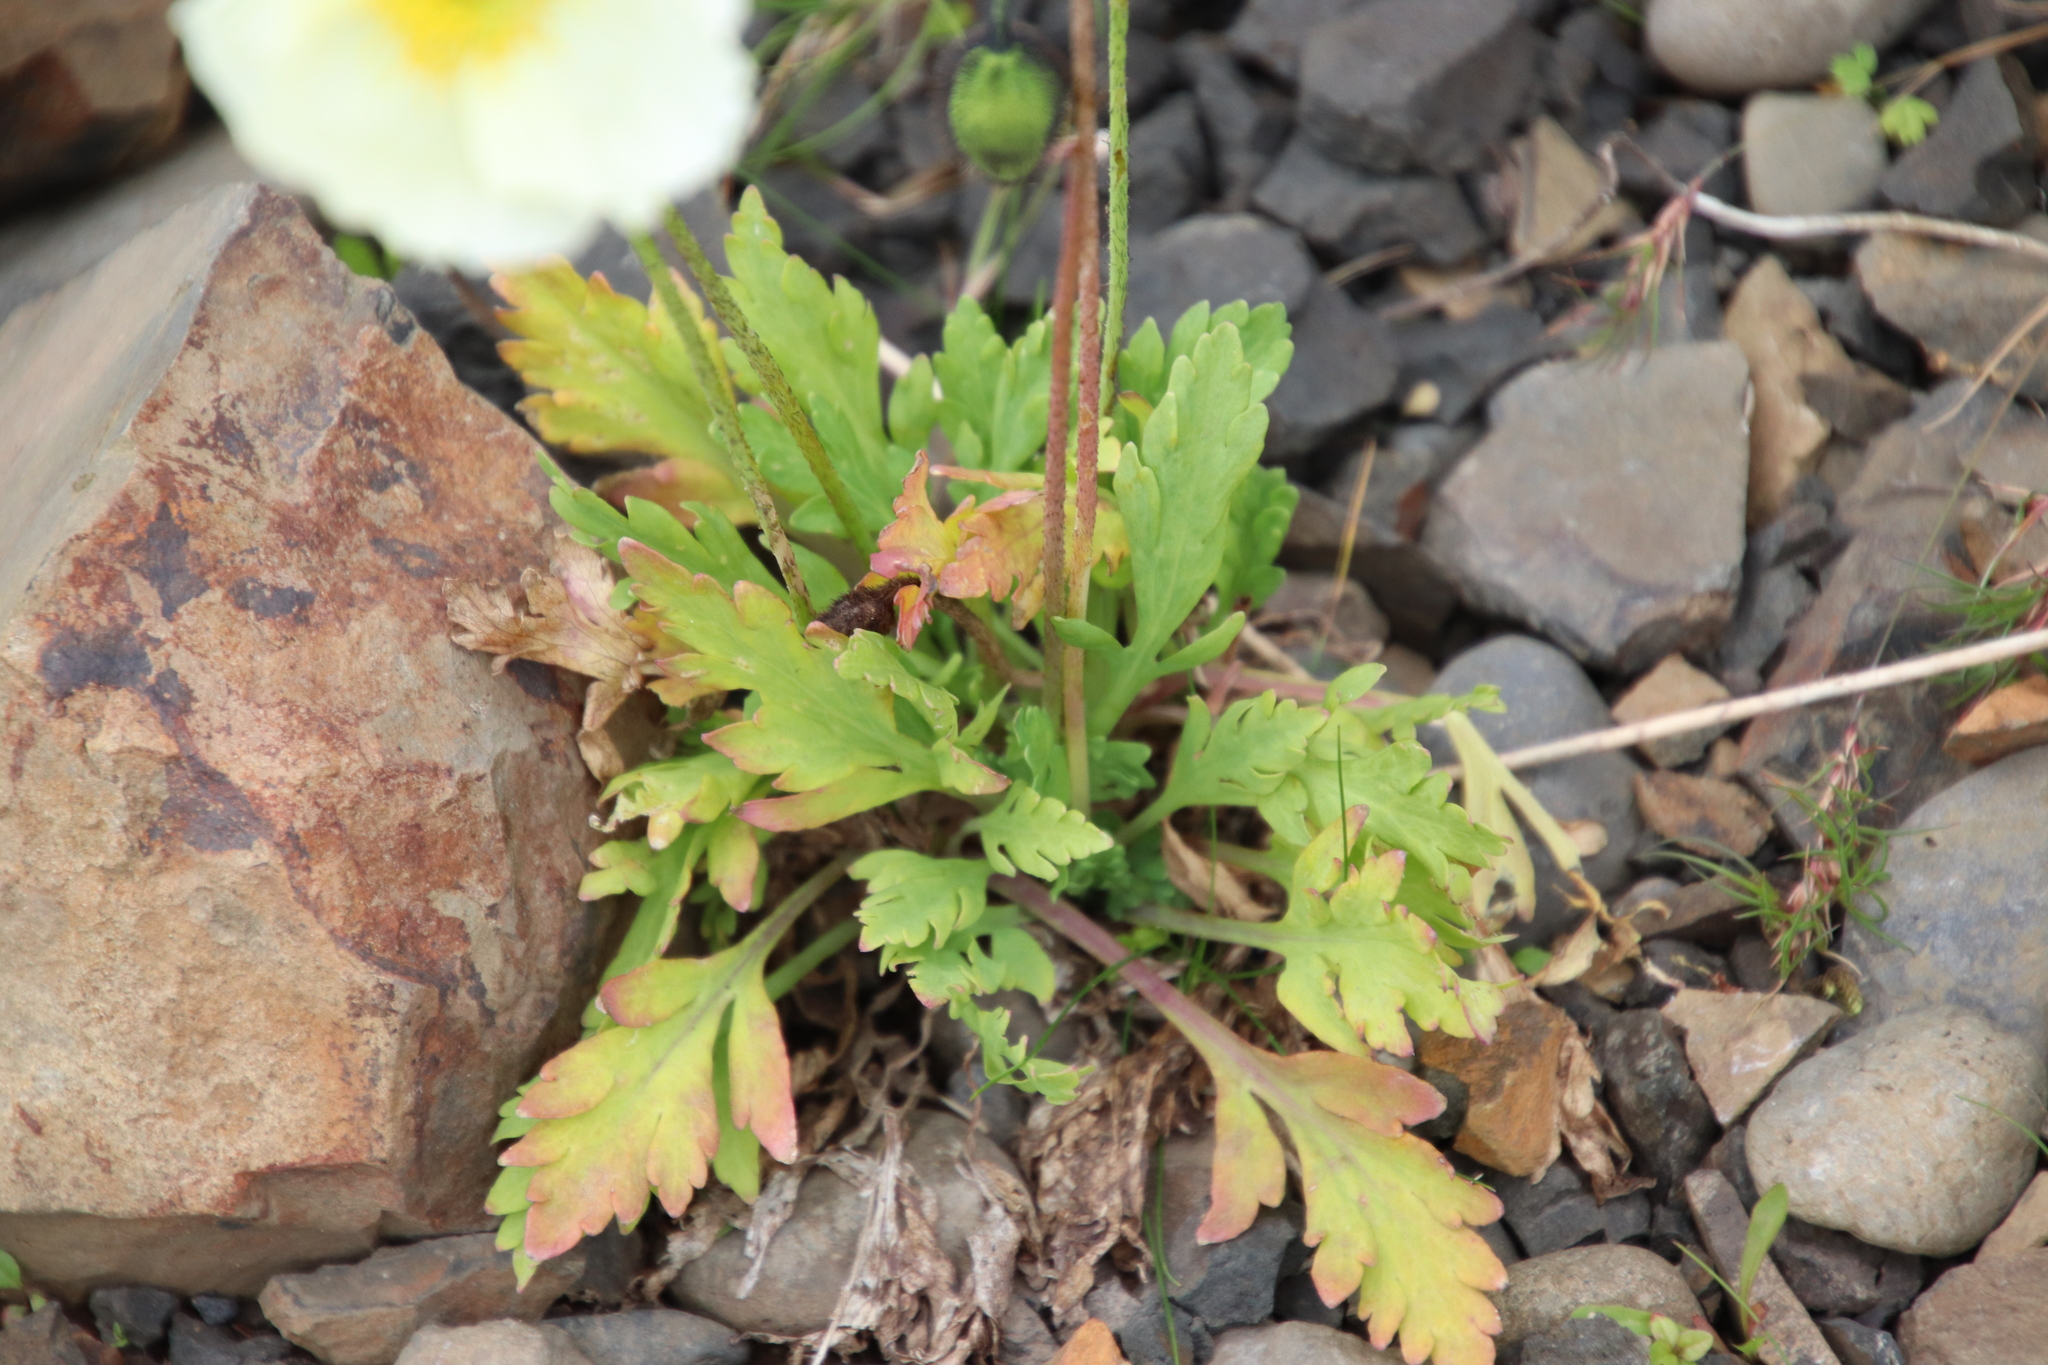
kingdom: Plantae
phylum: Tracheophyta
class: Magnoliopsida
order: Ranunculales
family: Papaveraceae
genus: Papaver
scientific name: Papaver nudicaule
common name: Arctic poppy
